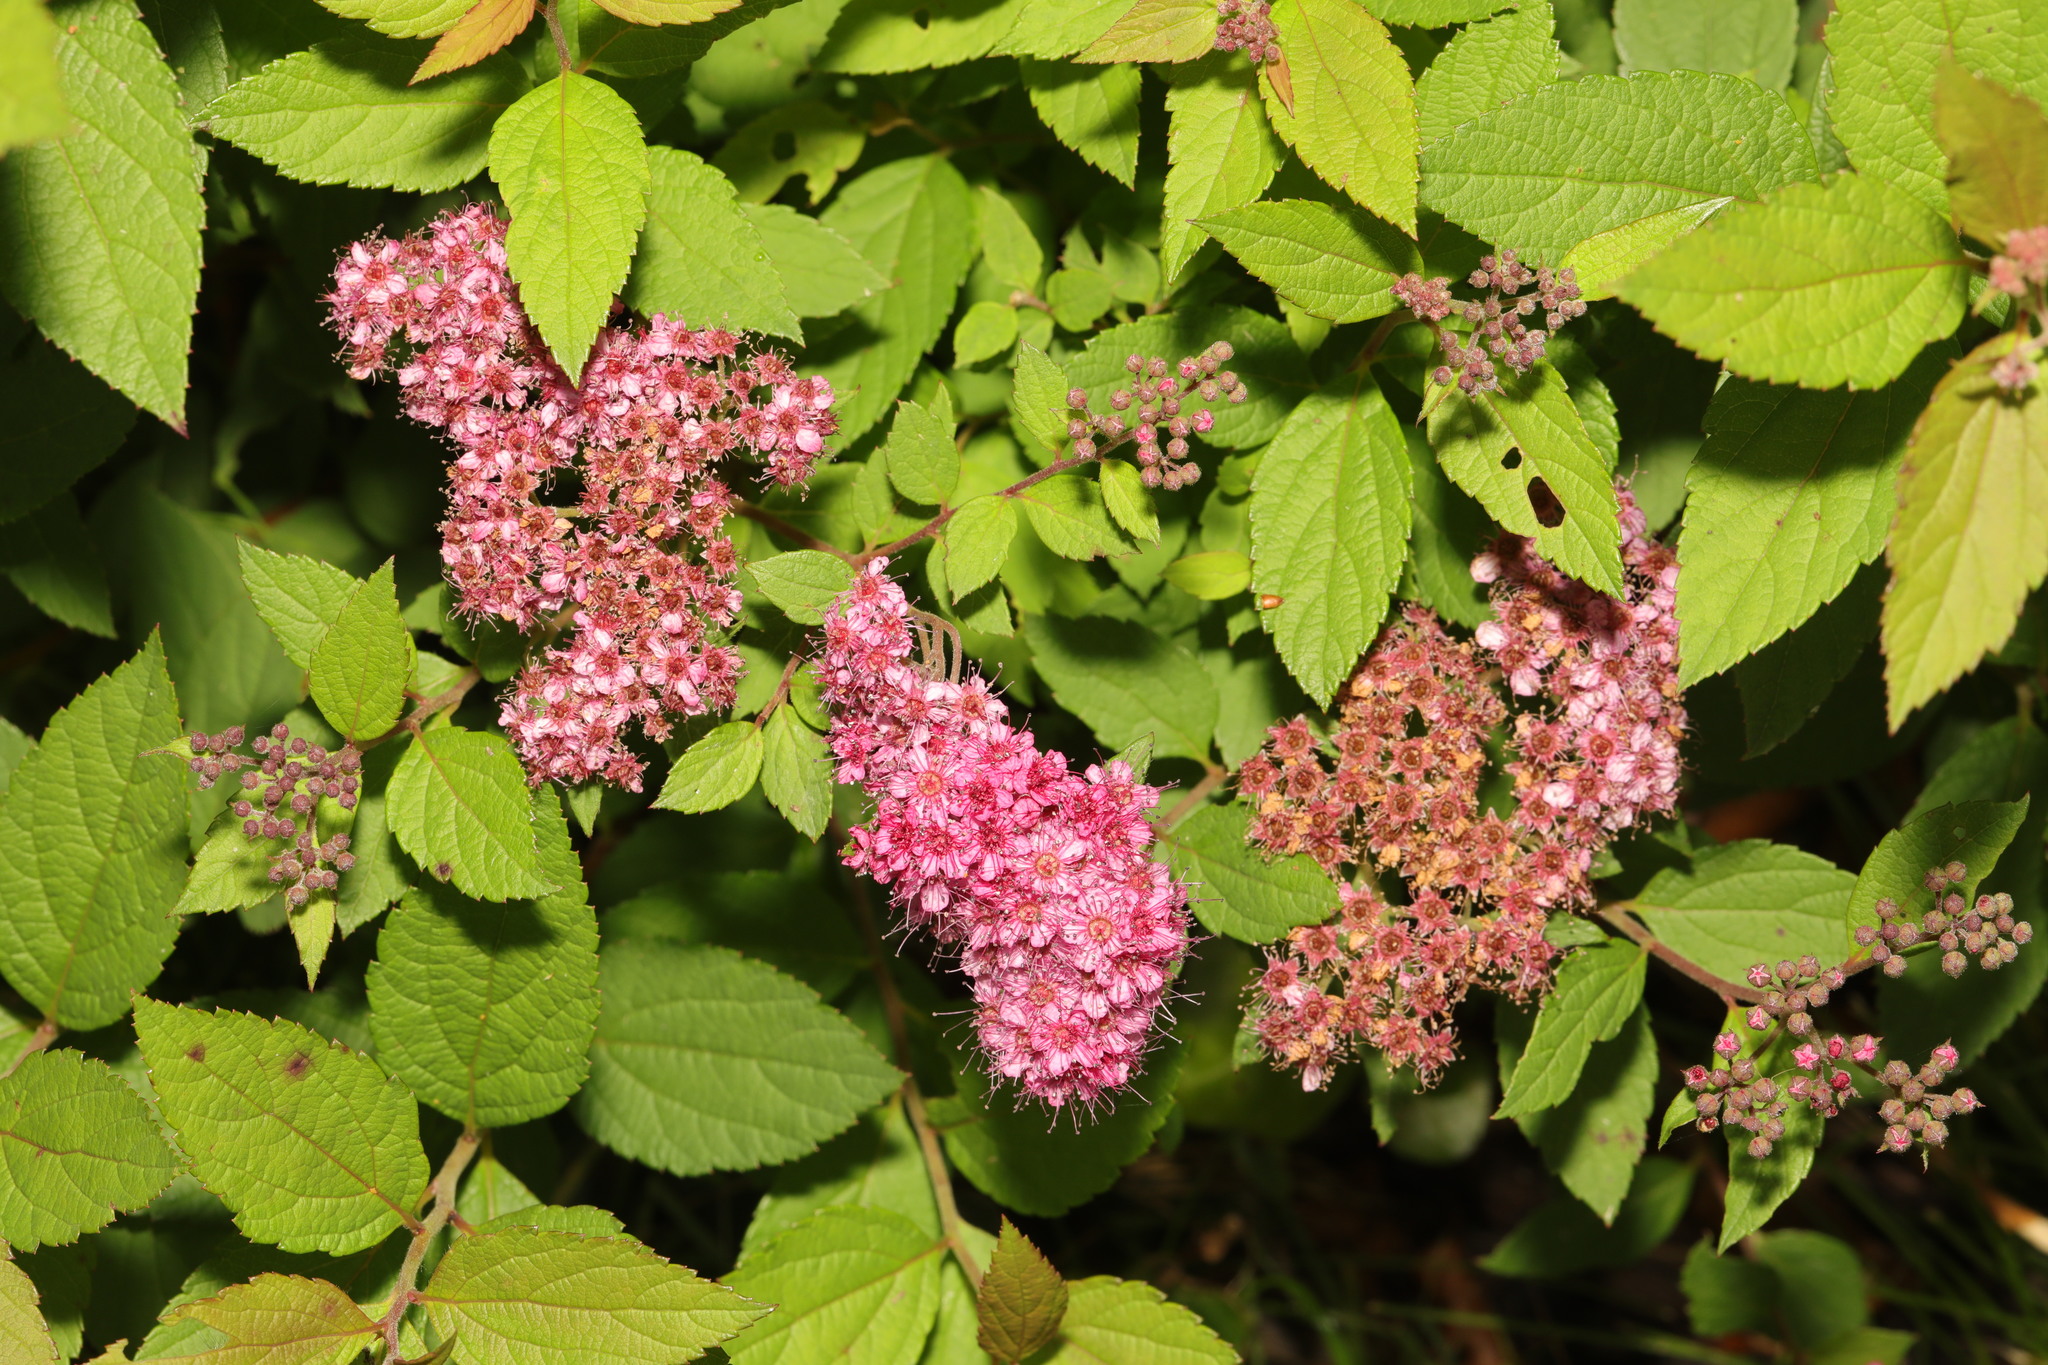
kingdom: Plantae
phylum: Tracheophyta
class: Magnoliopsida
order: Rosales
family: Rosaceae
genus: Spiraea
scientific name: Spiraea japonica
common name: Japanese spiraea
